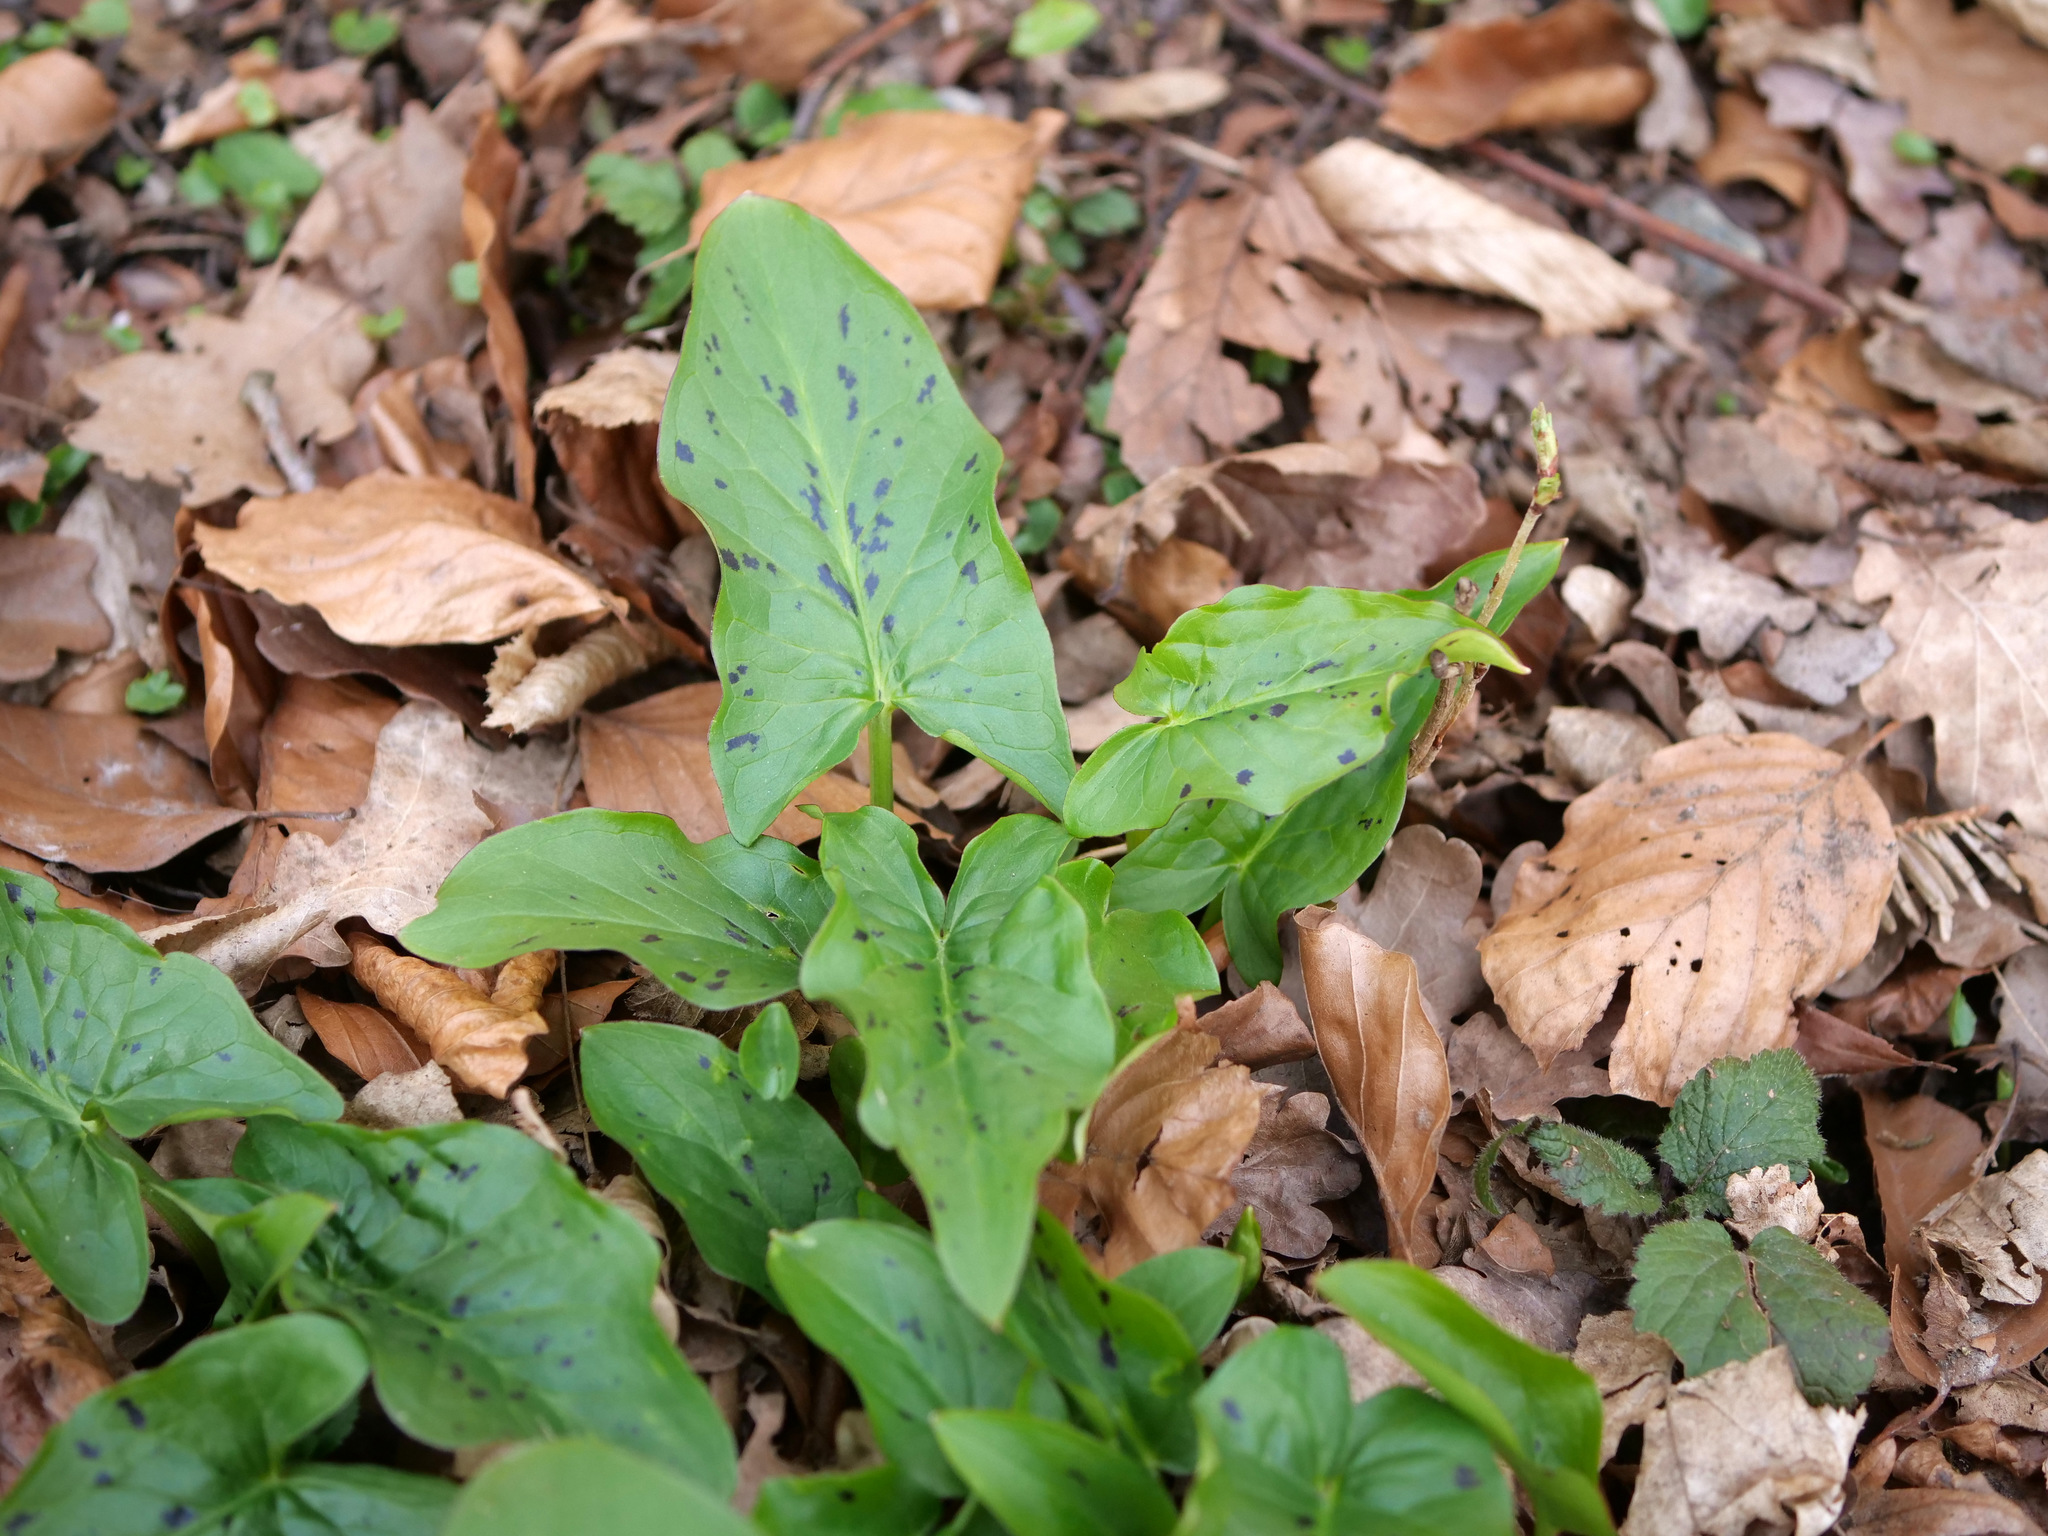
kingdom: Plantae
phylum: Tracheophyta
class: Liliopsida
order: Alismatales
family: Araceae
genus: Arum
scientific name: Arum maculatum
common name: Lords-and-ladies
